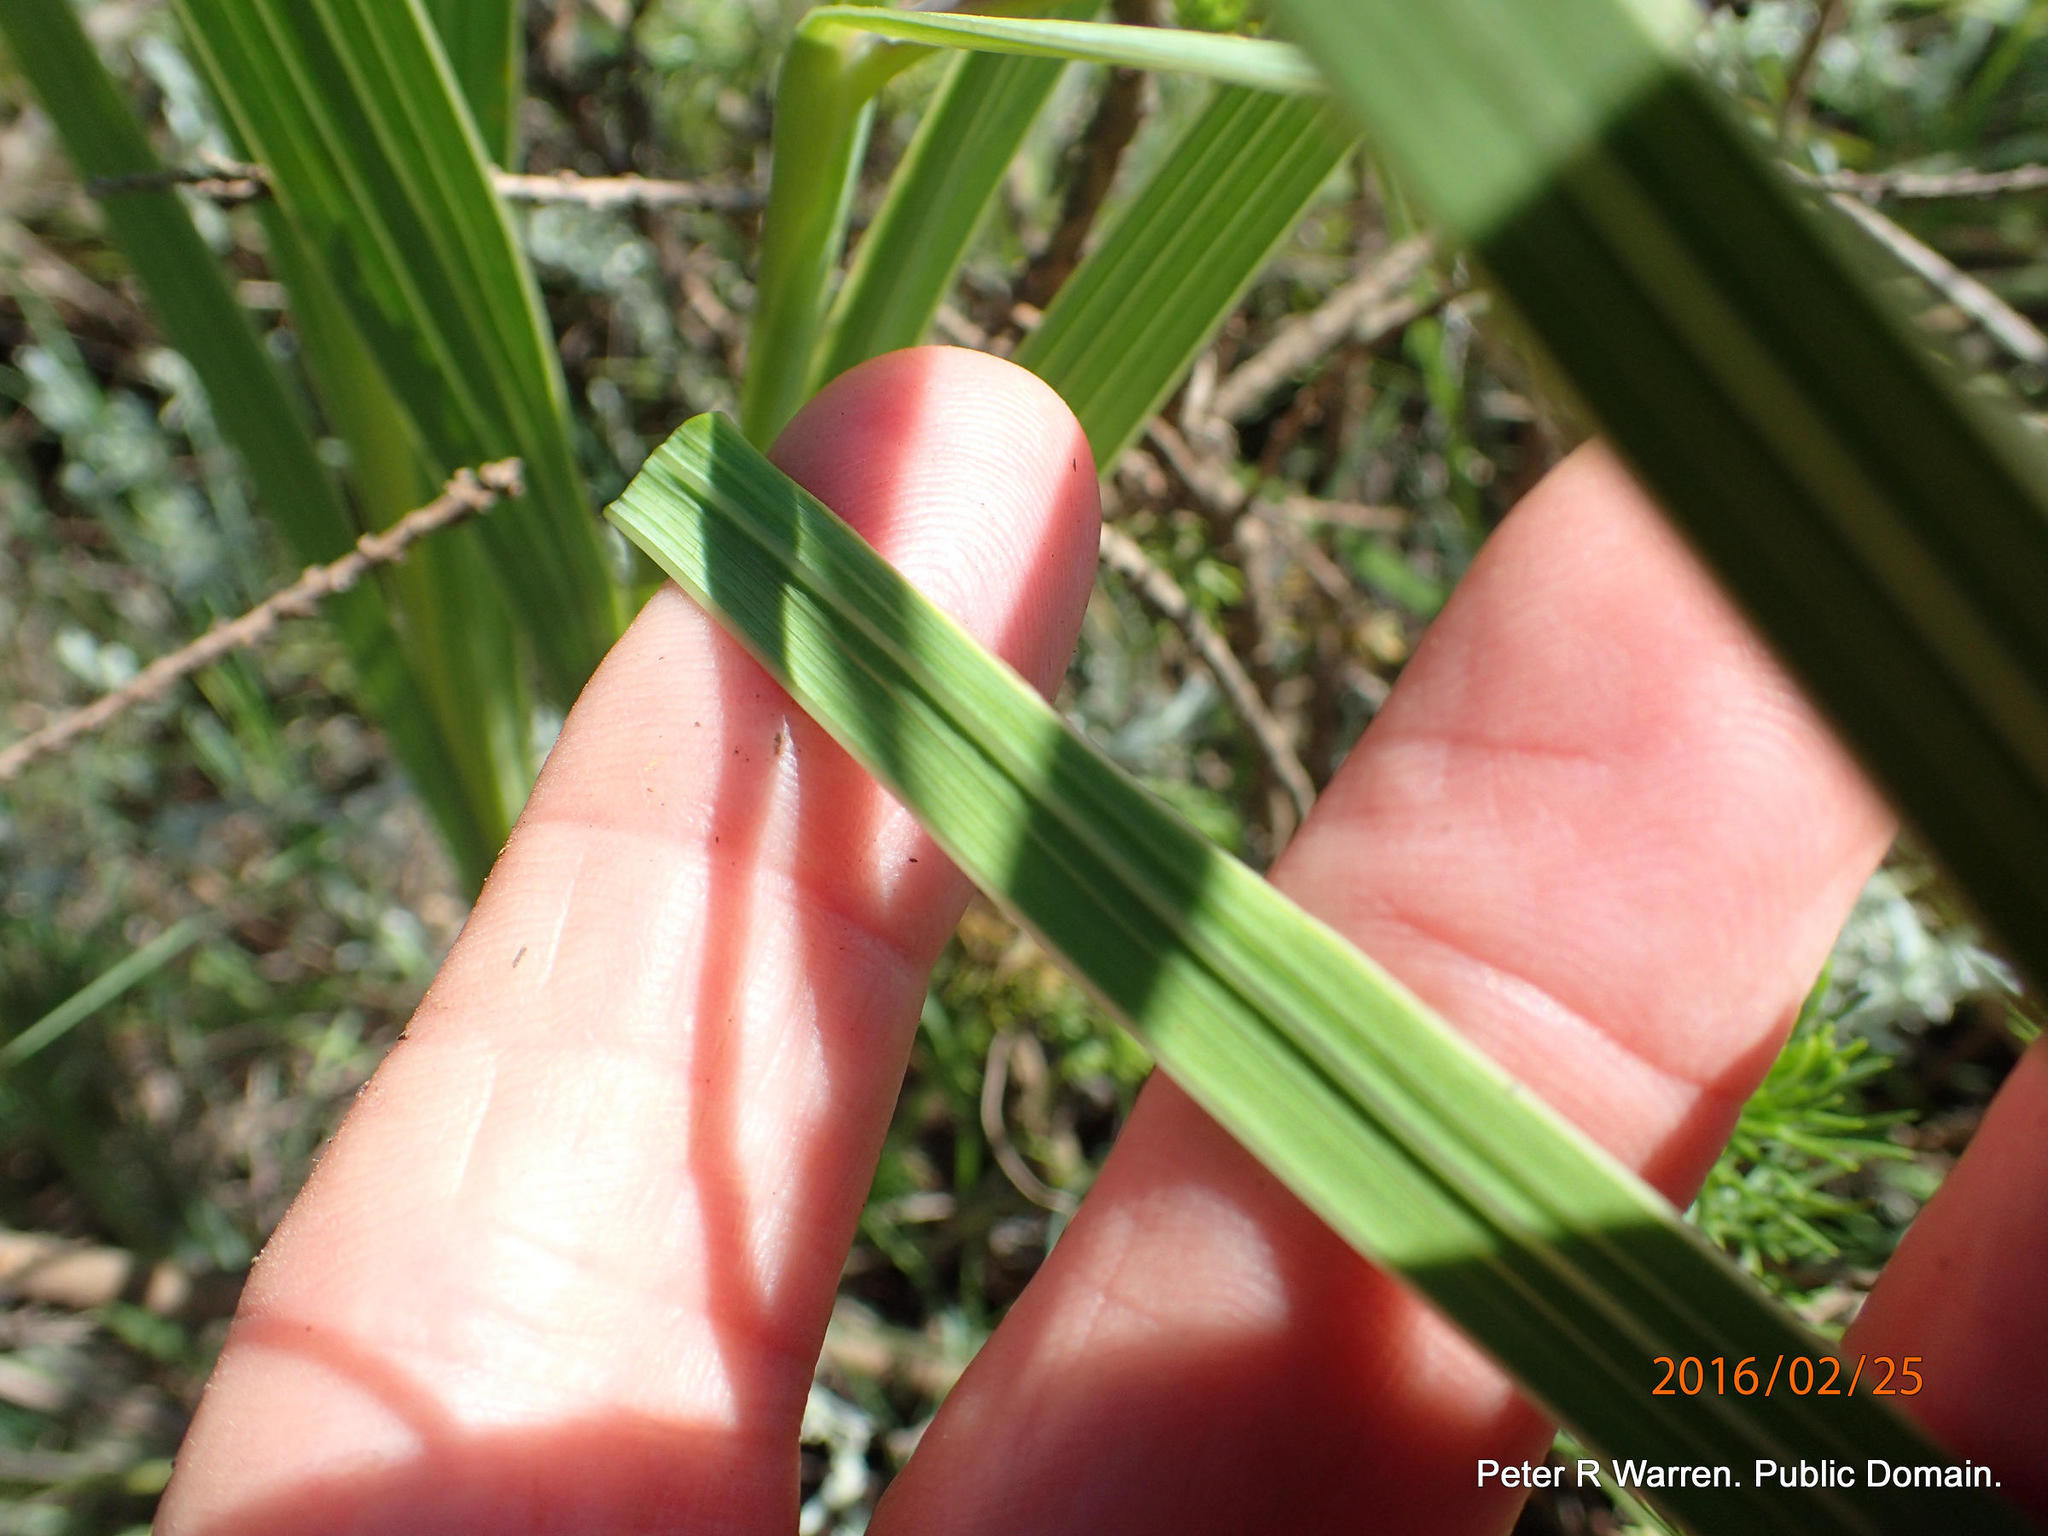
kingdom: Plantae
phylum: Tracheophyta
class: Liliopsida
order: Asparagales
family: Iridaceae
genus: Gladiolus
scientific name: Gladiolus crassifolius
